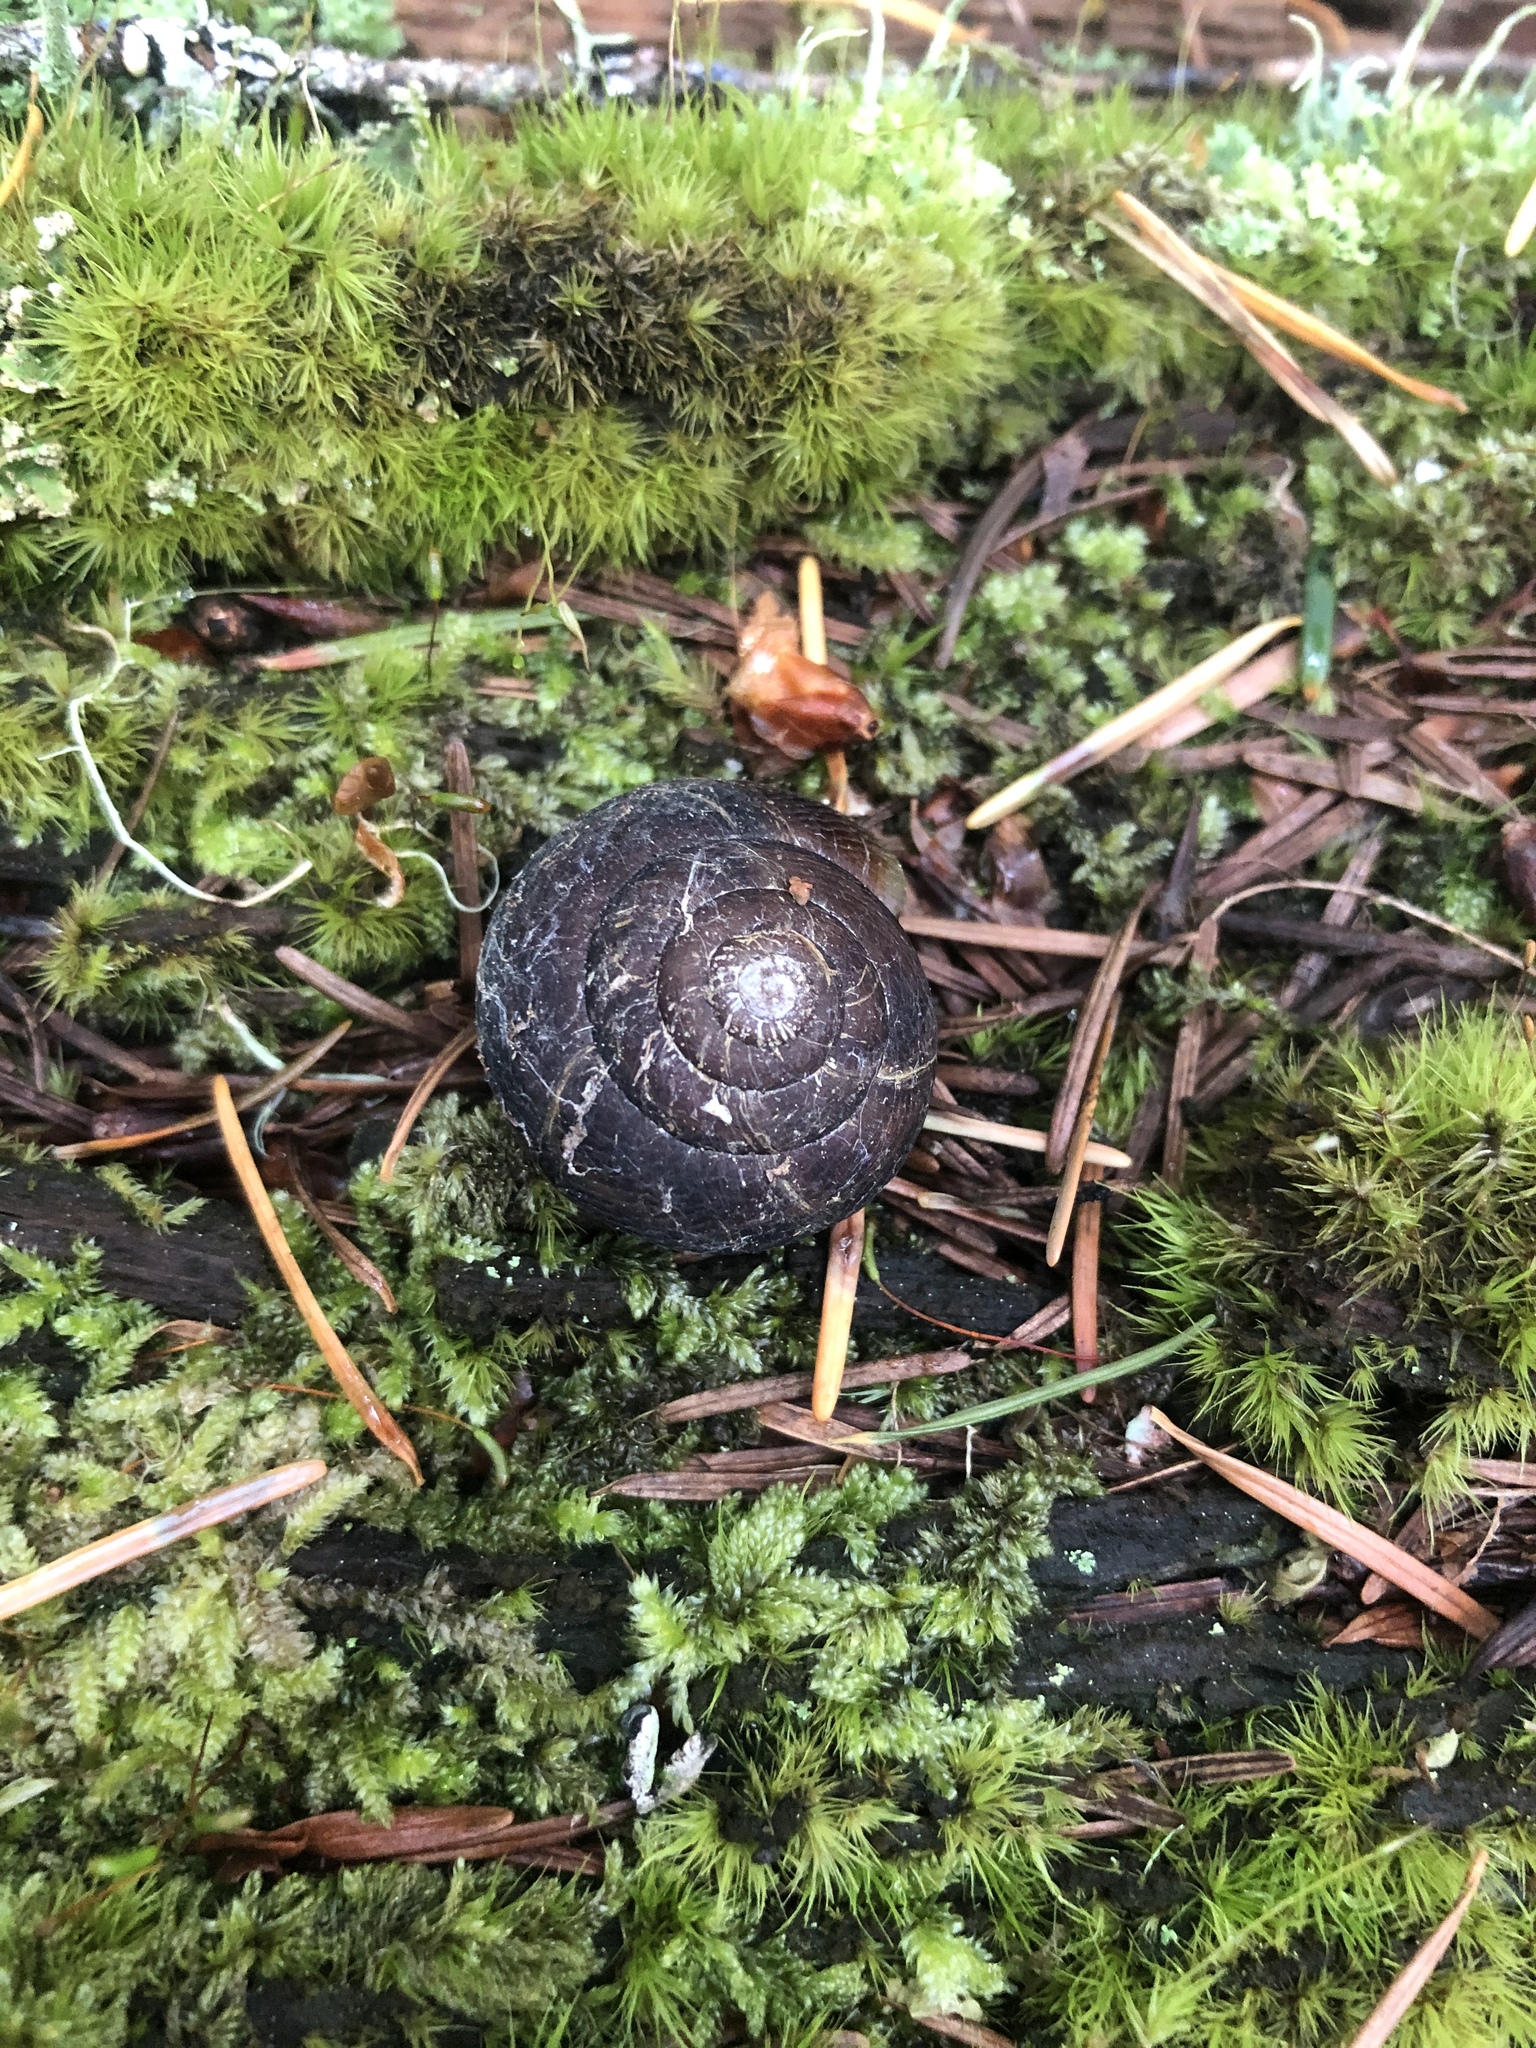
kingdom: Animalia
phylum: Mollusca
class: Gastropoda
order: Stylommatophora
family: Xanthonychidae
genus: Monadenia
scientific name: Monadenia fidelis
